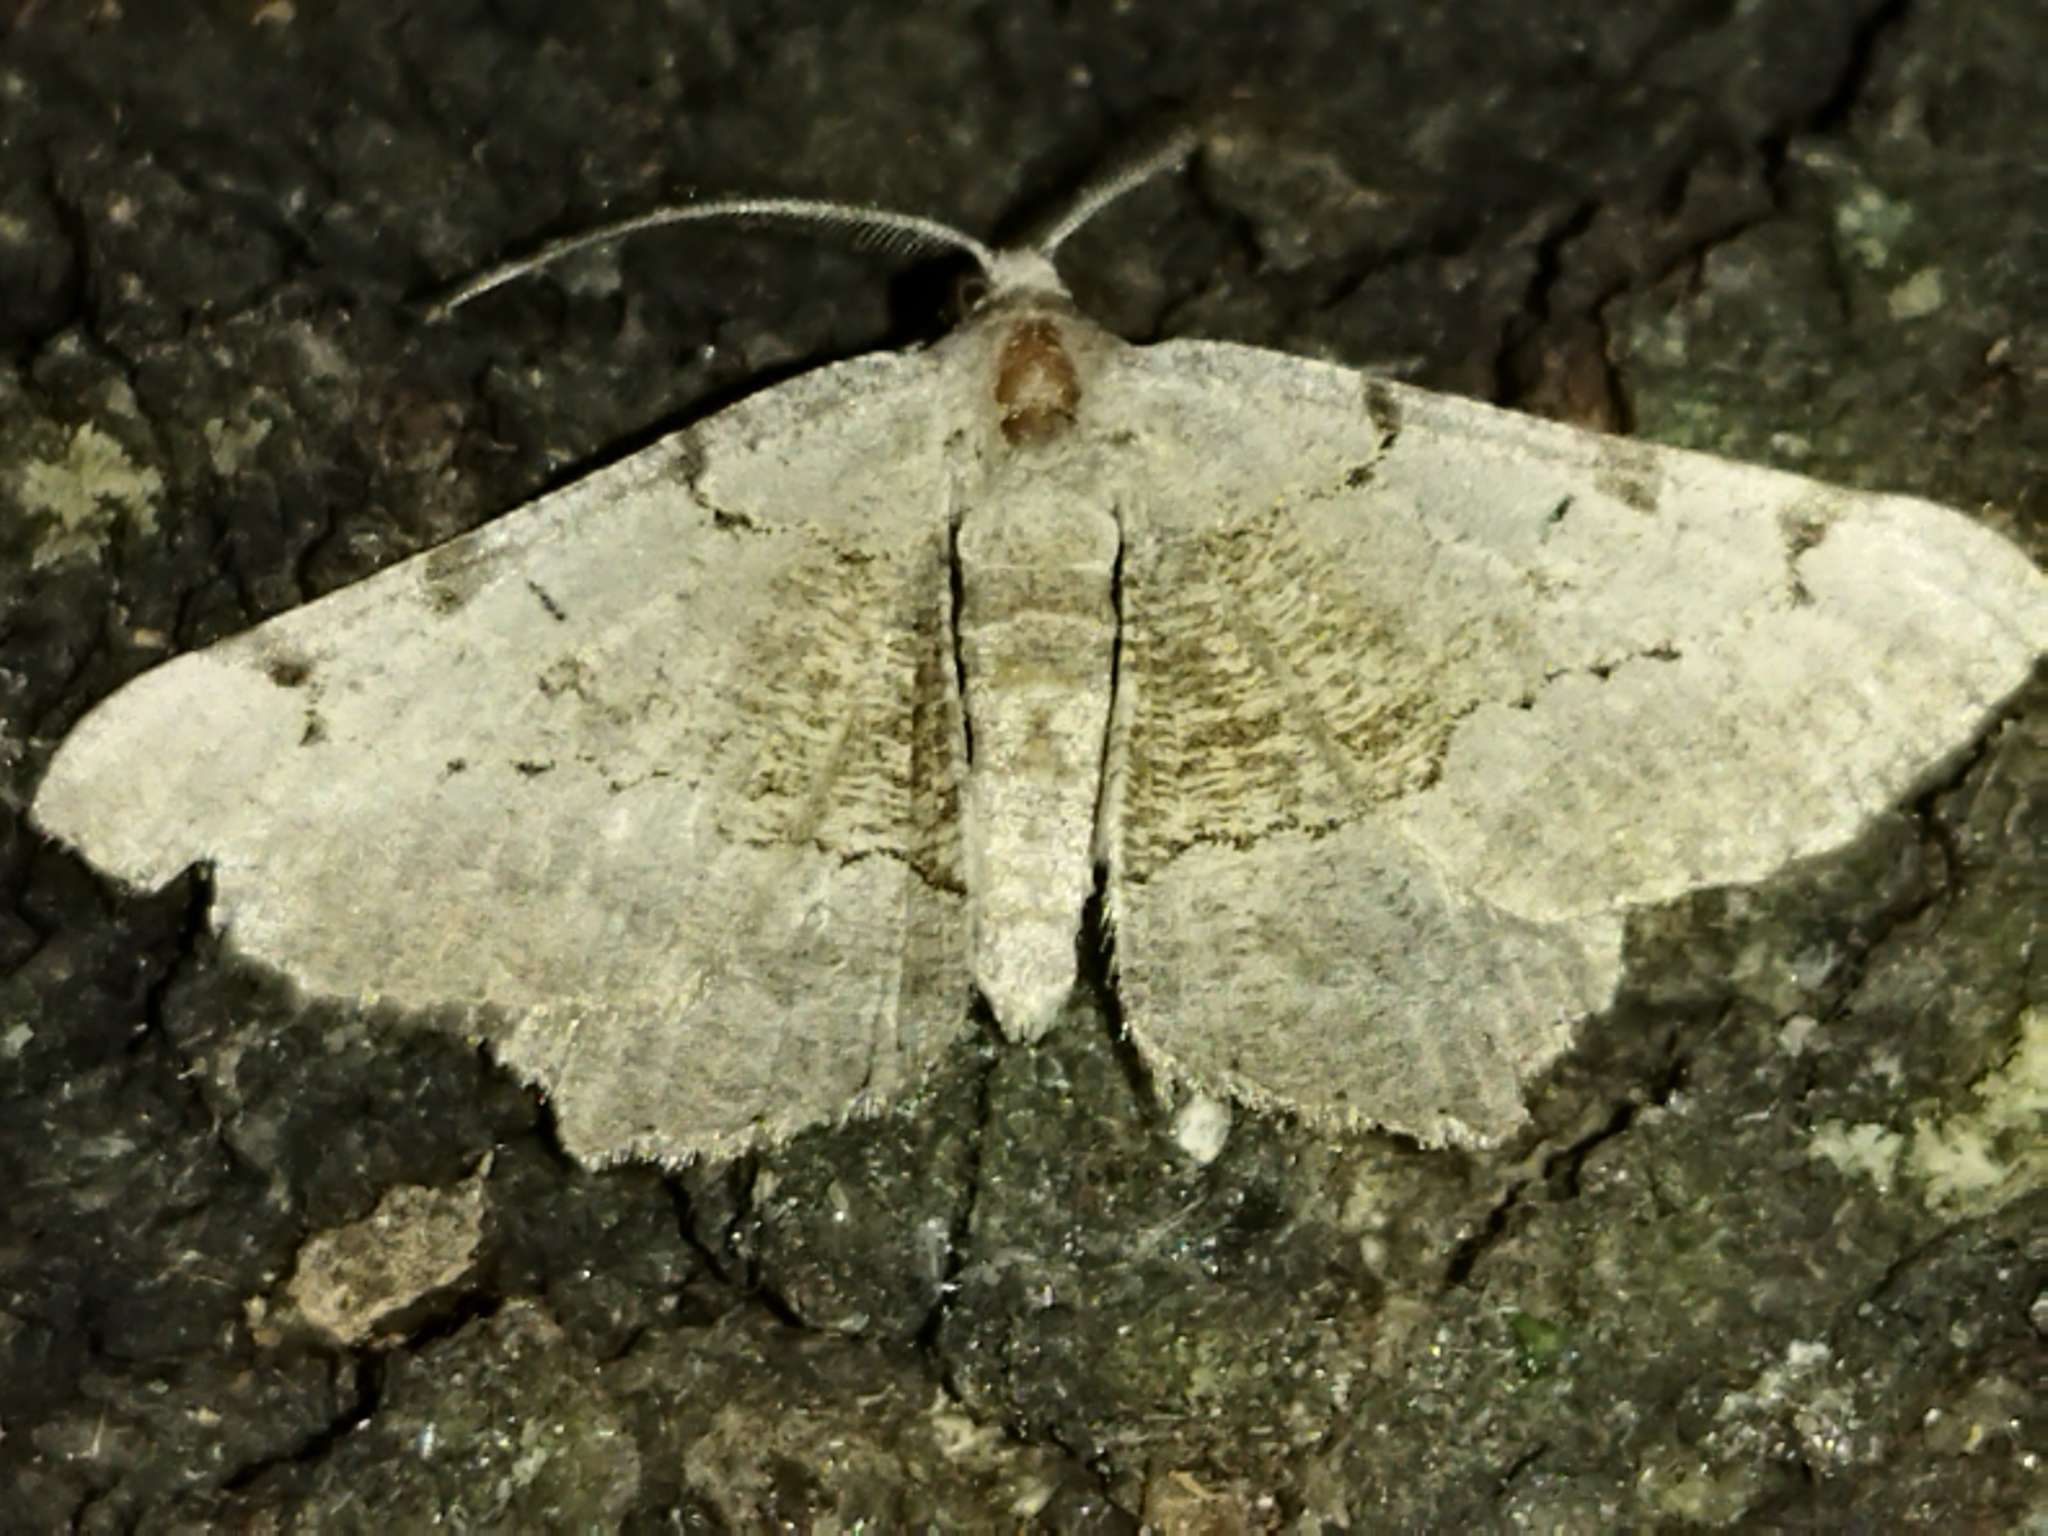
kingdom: Animalia
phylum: Arthropoda
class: Insecta
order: Lepidoptera
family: Geometridae
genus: Neognopharmia
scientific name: Neognopharmia stevenaria
